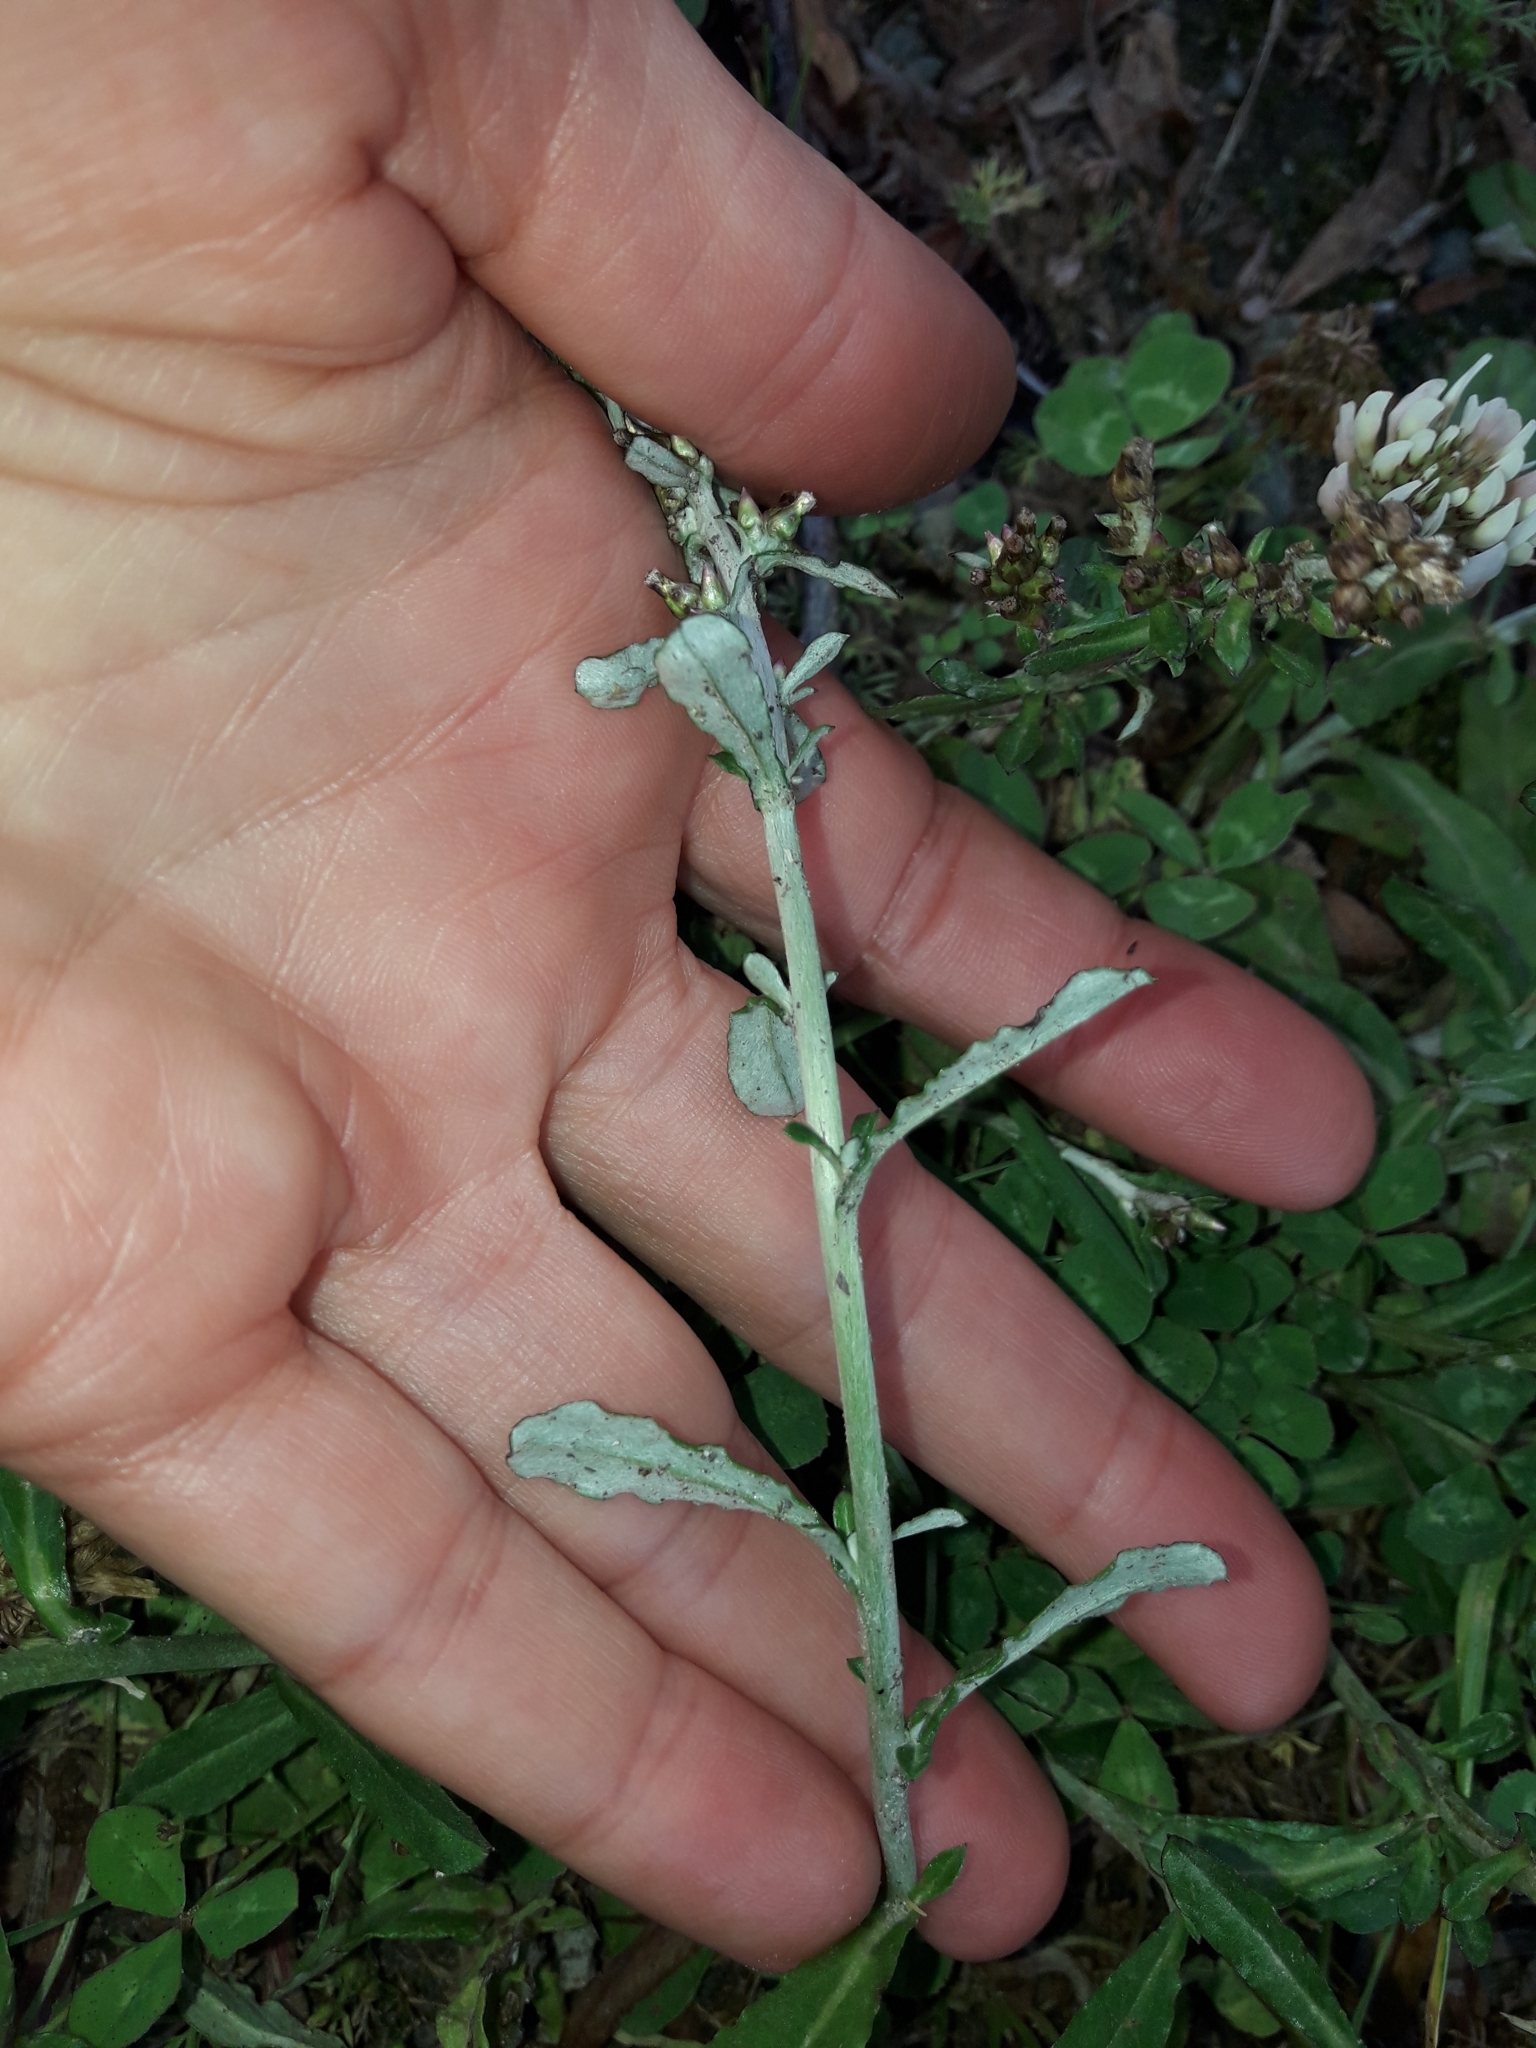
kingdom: Plantae
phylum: Tracheophyta
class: Magnoliopsida
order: Asterales
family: Asteraceae
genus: Gamochaeta
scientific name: Gamochaeta americana
